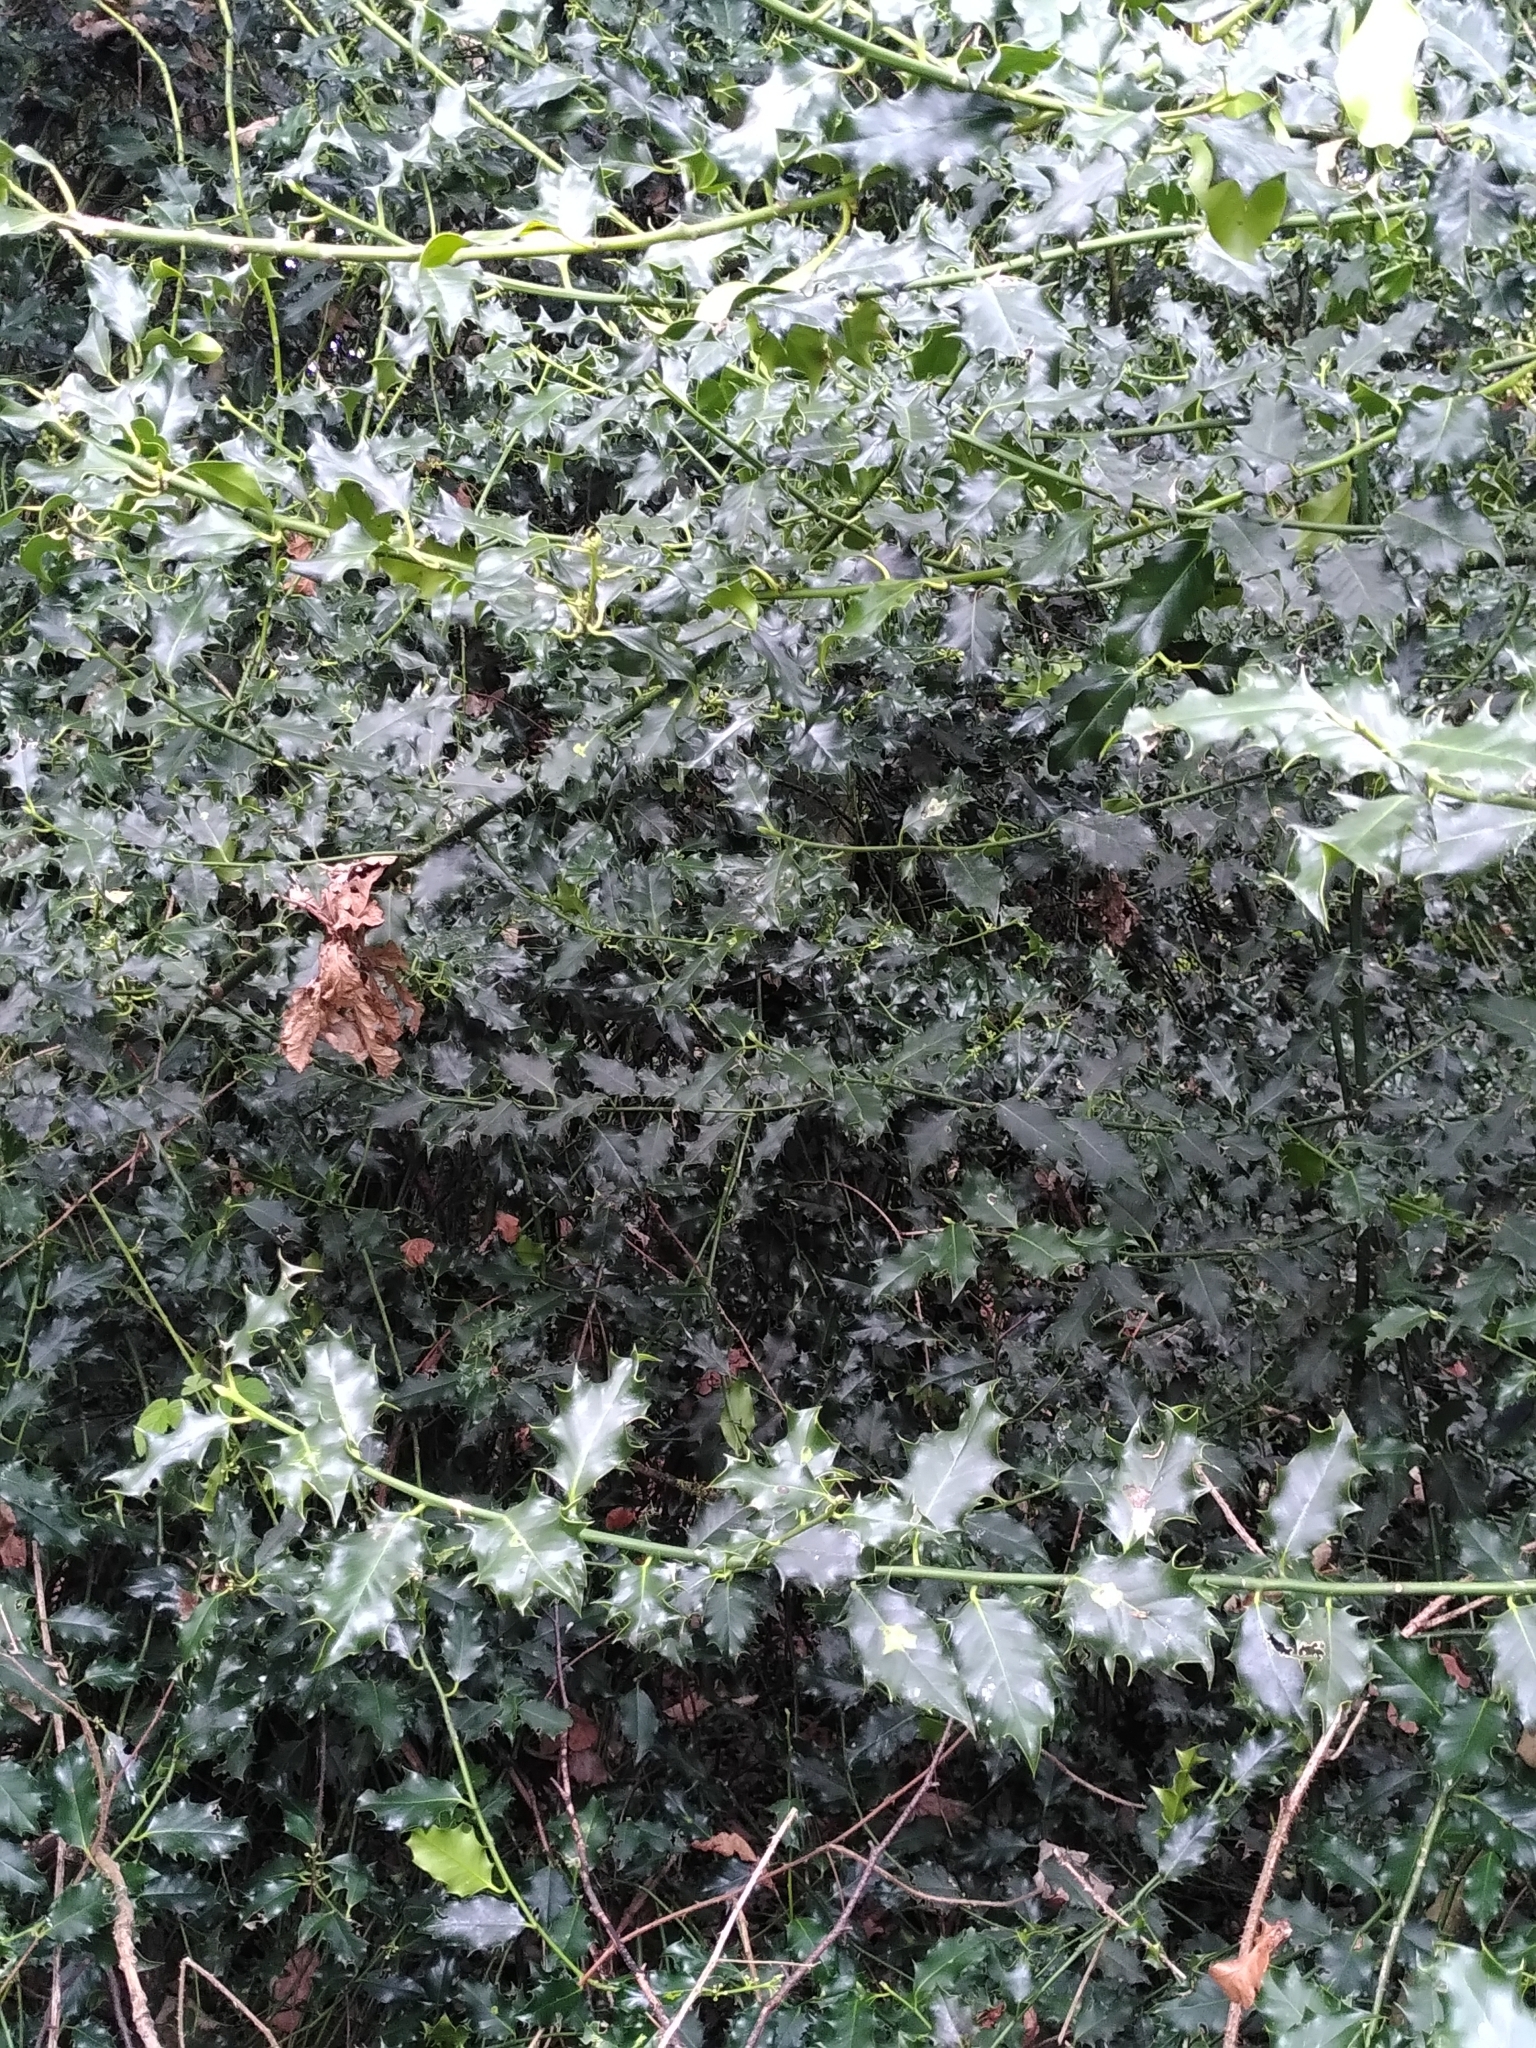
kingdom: Plantae
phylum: Tracheophyta
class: Magnoliopsida
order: Aquifoliales
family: Aquifoliaceae
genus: Ilex
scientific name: Ilex aquifolium
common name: English holly
